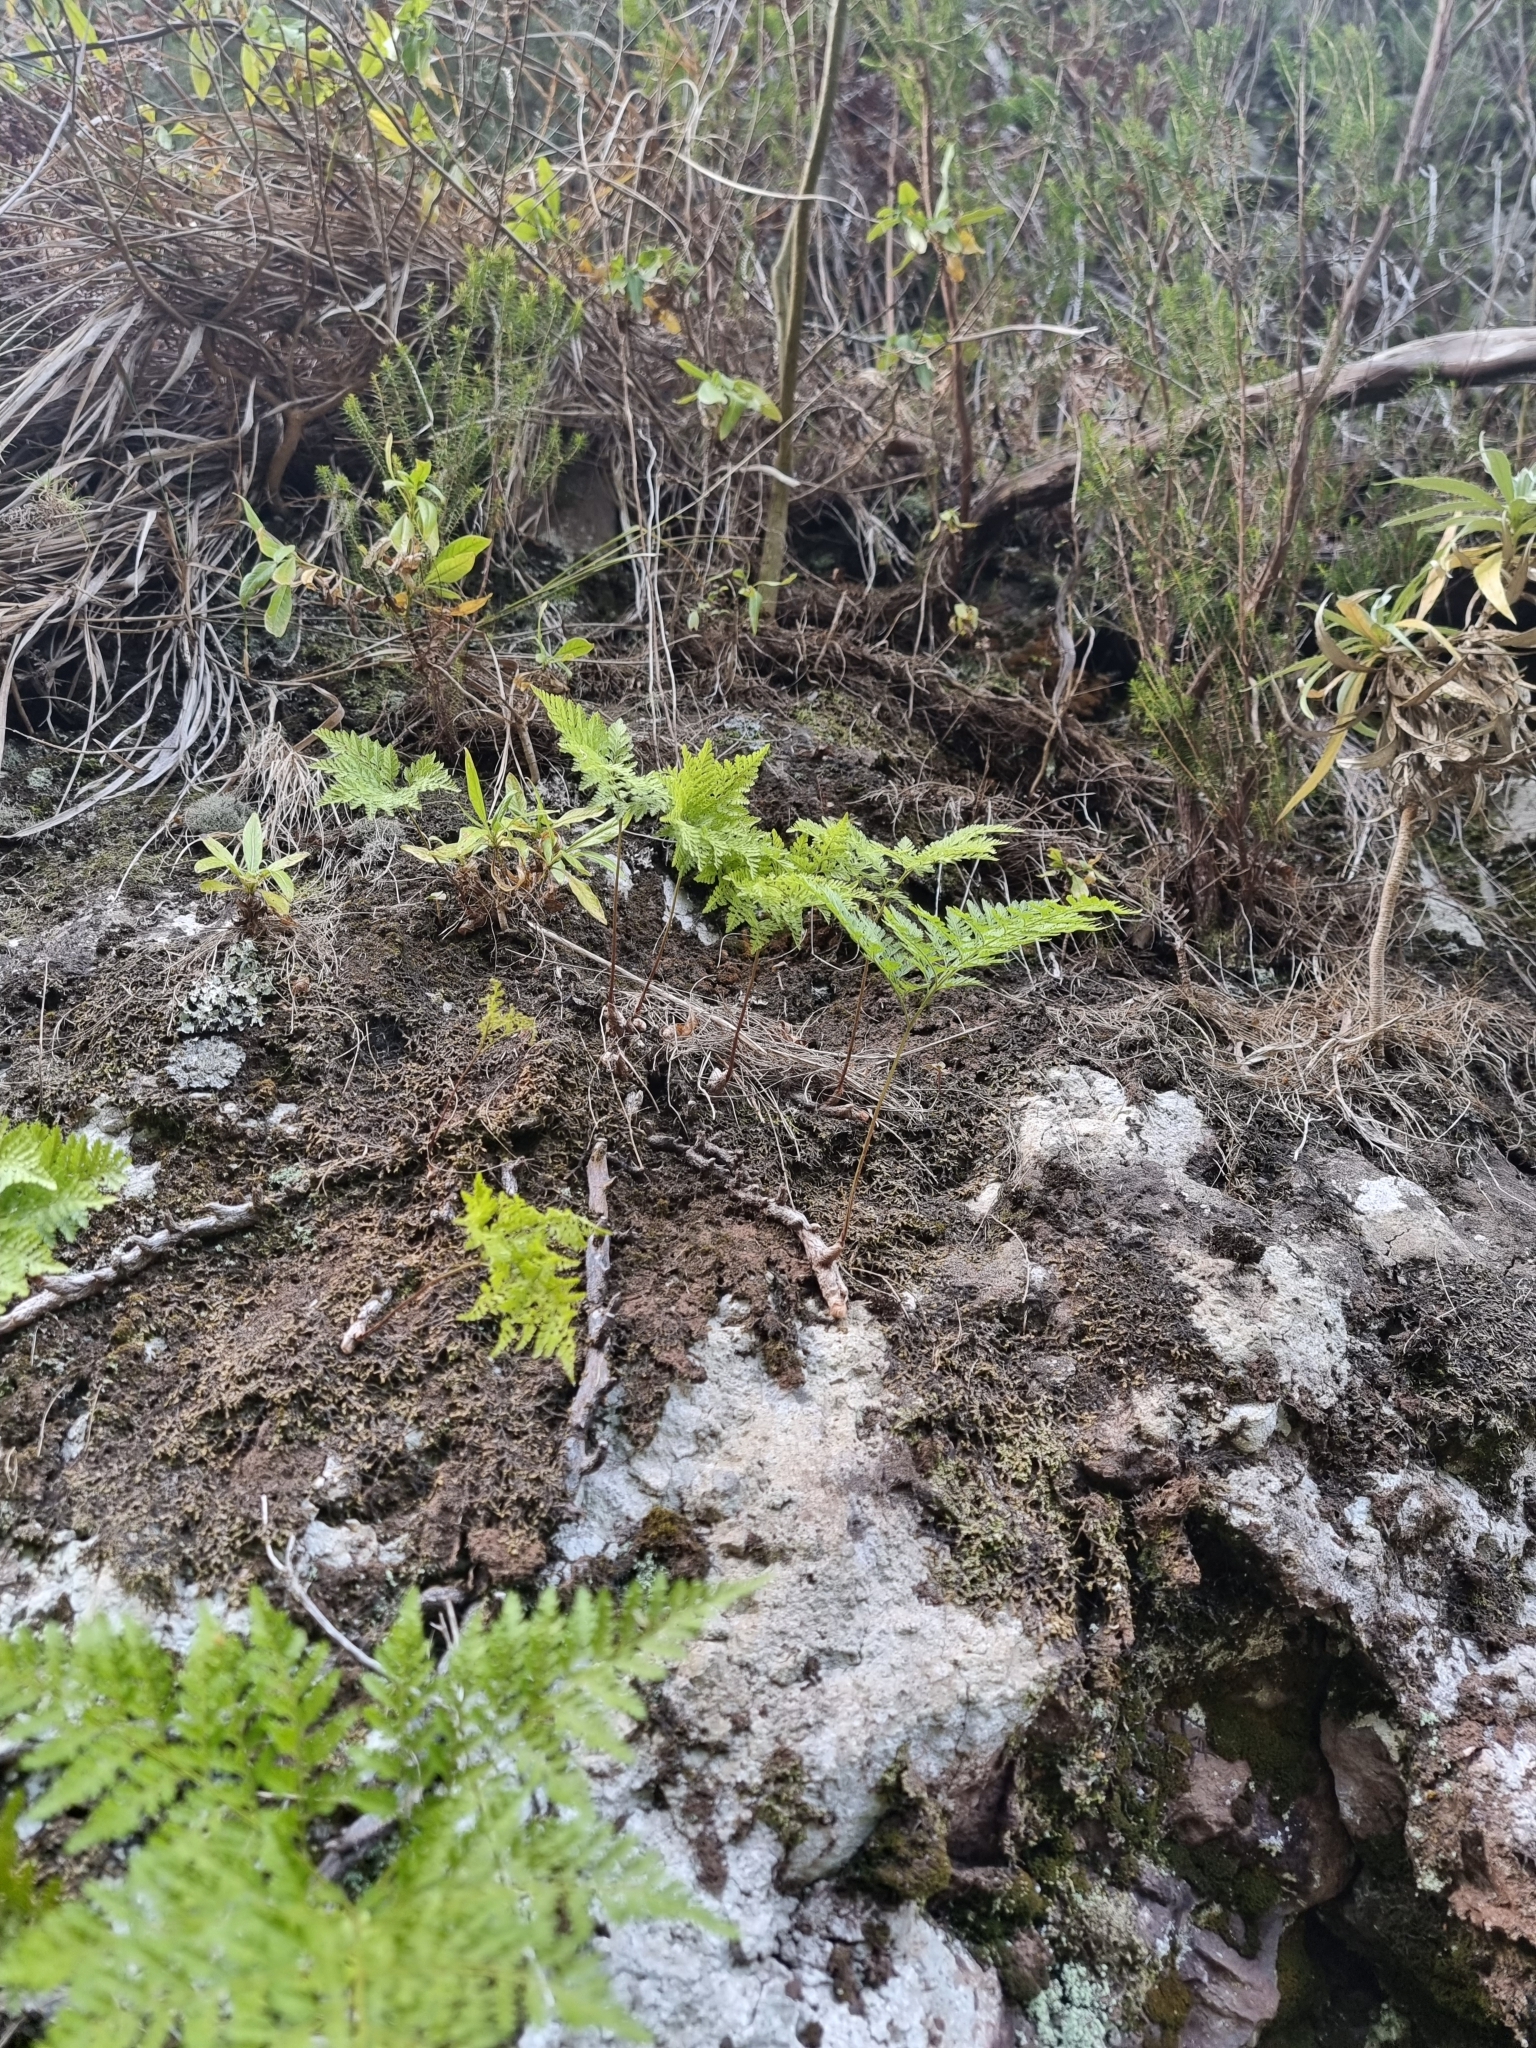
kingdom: Plantae
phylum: Tracheophyta
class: Polypodiopsida
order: Polypodiales
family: Davalliaceae
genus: Davallia
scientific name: Davallia canariensis
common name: Hare's-foot fern
